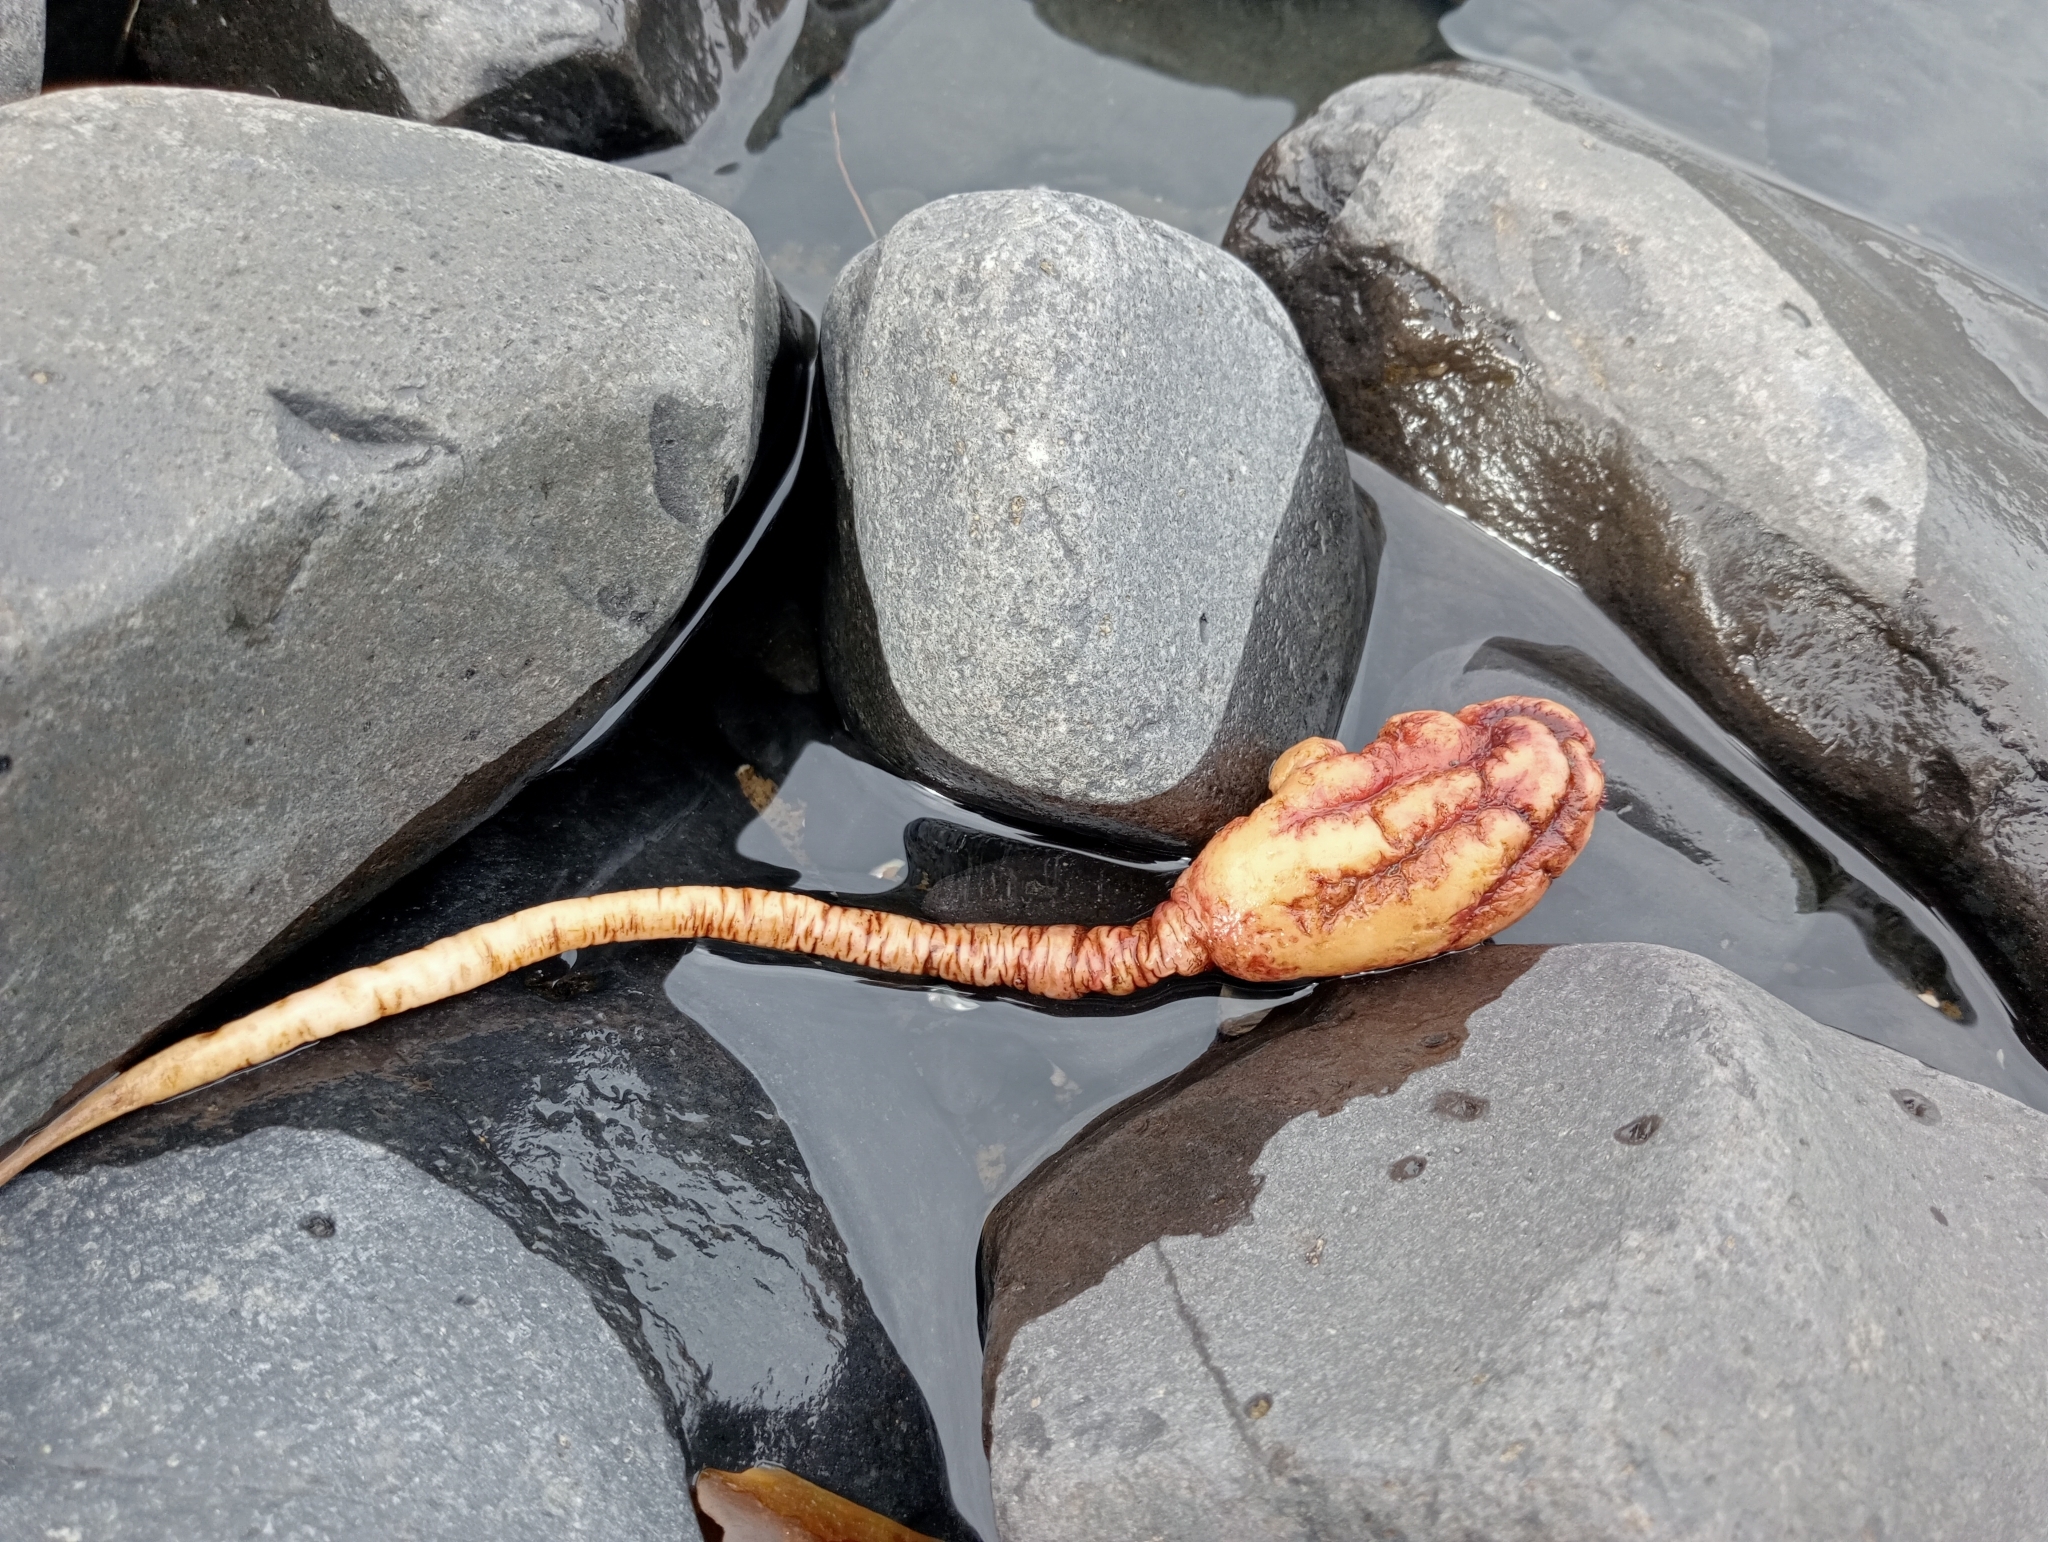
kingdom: Animalia
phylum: Chordata
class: Ascidiacea
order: Stolidobranchia
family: Pyuridae
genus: Pyura
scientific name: Pyura pachydermatina
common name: Sea tulip
